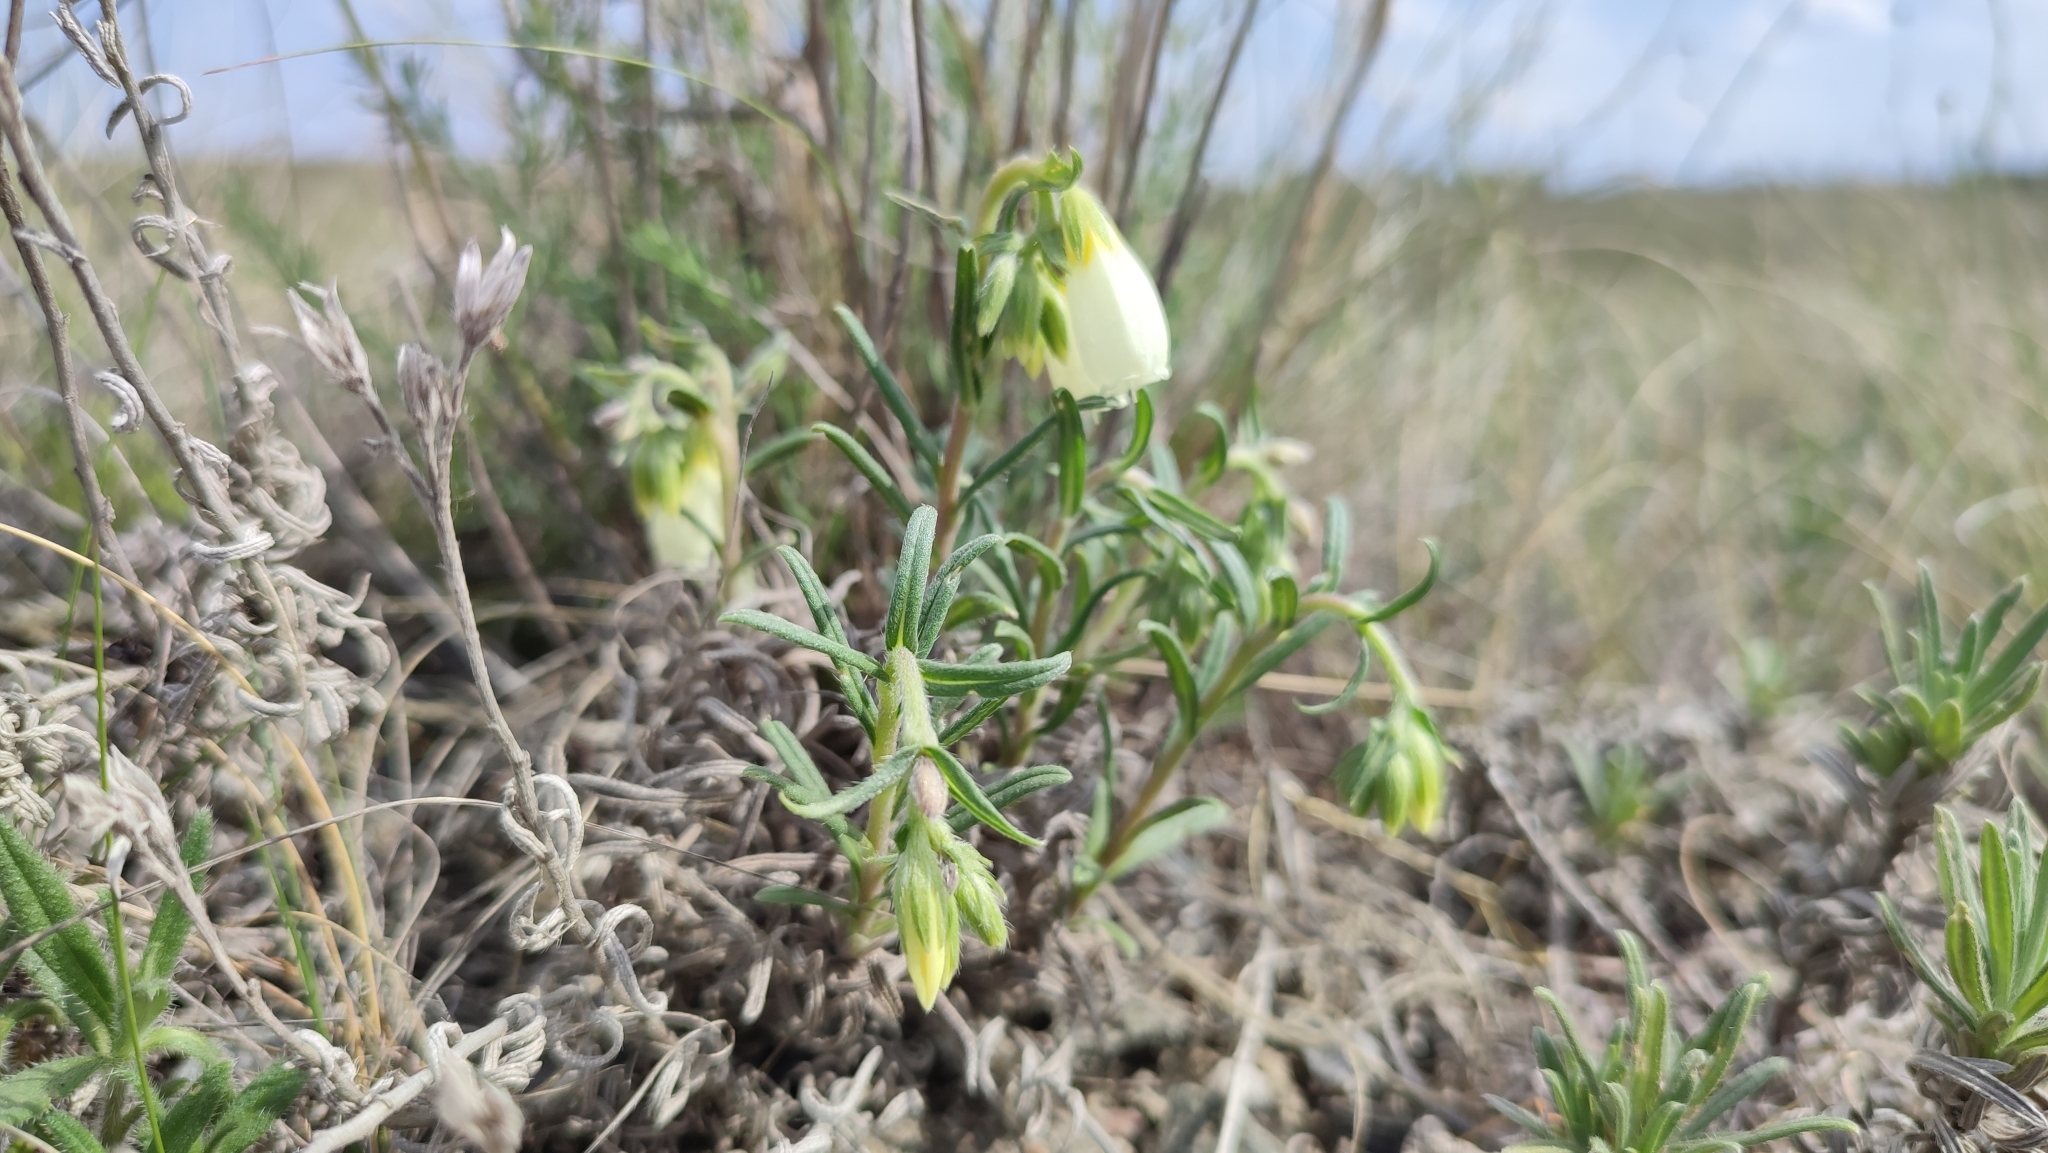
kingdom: Plantae
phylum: Tracheophyta
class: Magnoliopsida
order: Boraginales
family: Boraginaceae
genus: Onosma
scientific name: Onosma simplicissima
